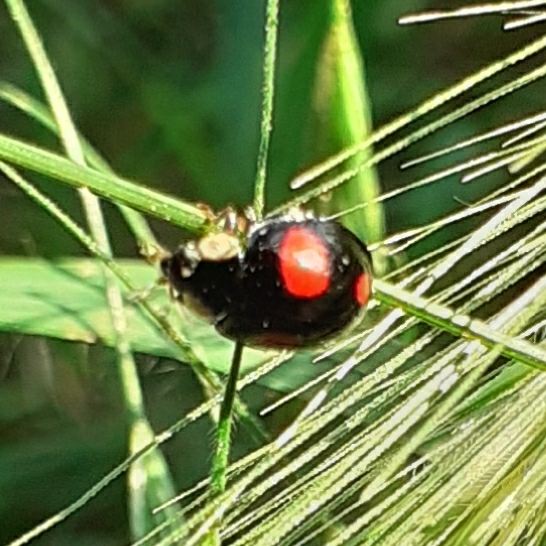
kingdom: Animalia
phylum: Arthropoda
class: Insecta
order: Coleoptera
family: Coccinellidae
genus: Harmonia
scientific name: Harmonia axyridis
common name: Harlequin ladybird
